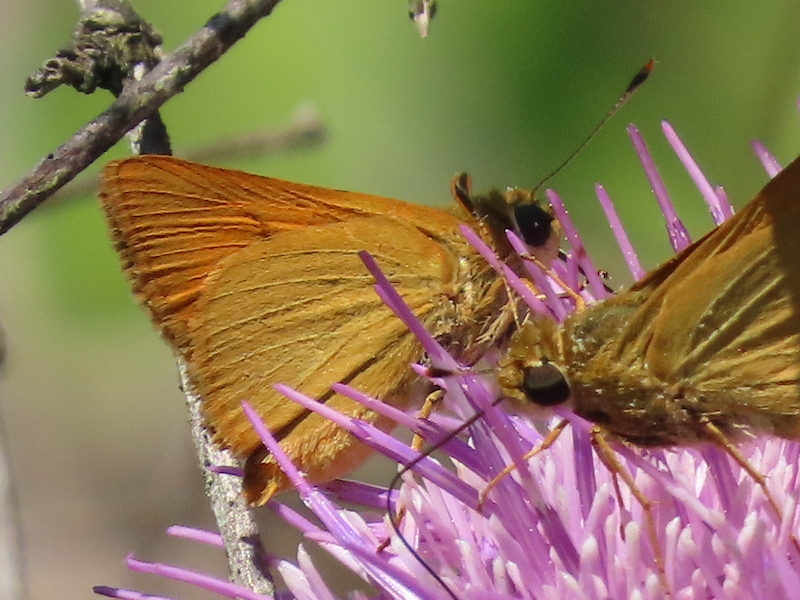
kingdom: Animalia
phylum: Arthropoda
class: Insecta
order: Lepidoptera
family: Hesperiidae
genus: Atrytone
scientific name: Atrytone delaware
